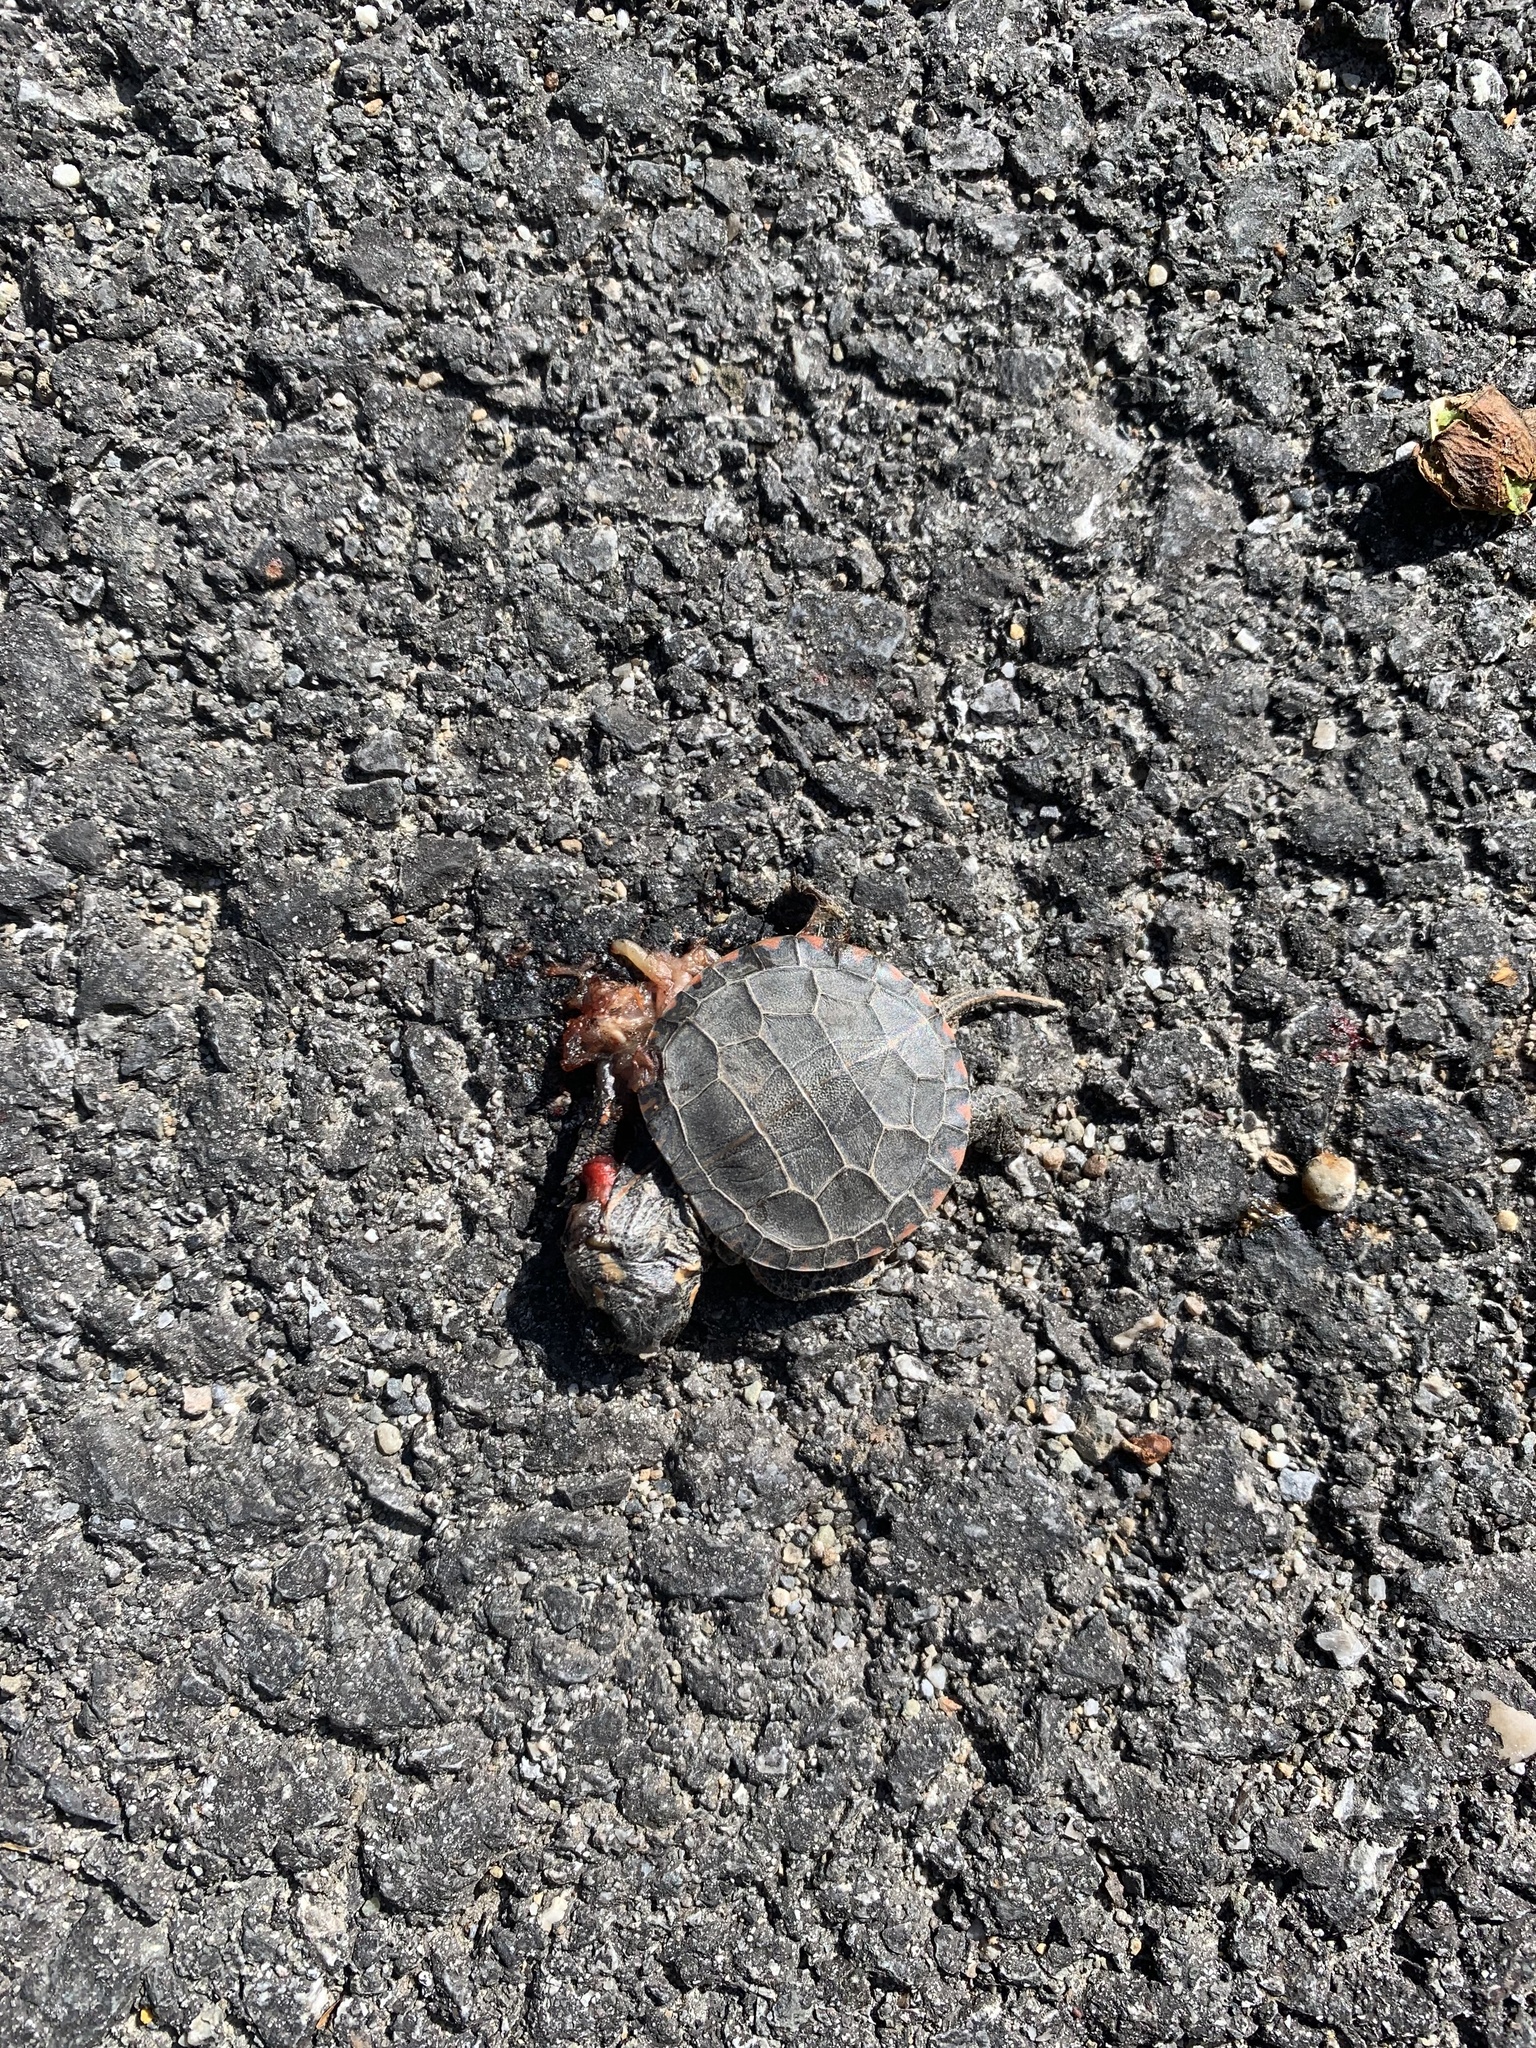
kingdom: Animalia
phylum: Chordata
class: Testudines
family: Emydidae
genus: Chrysemys
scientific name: Chrysemys picta
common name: Painted turtle
